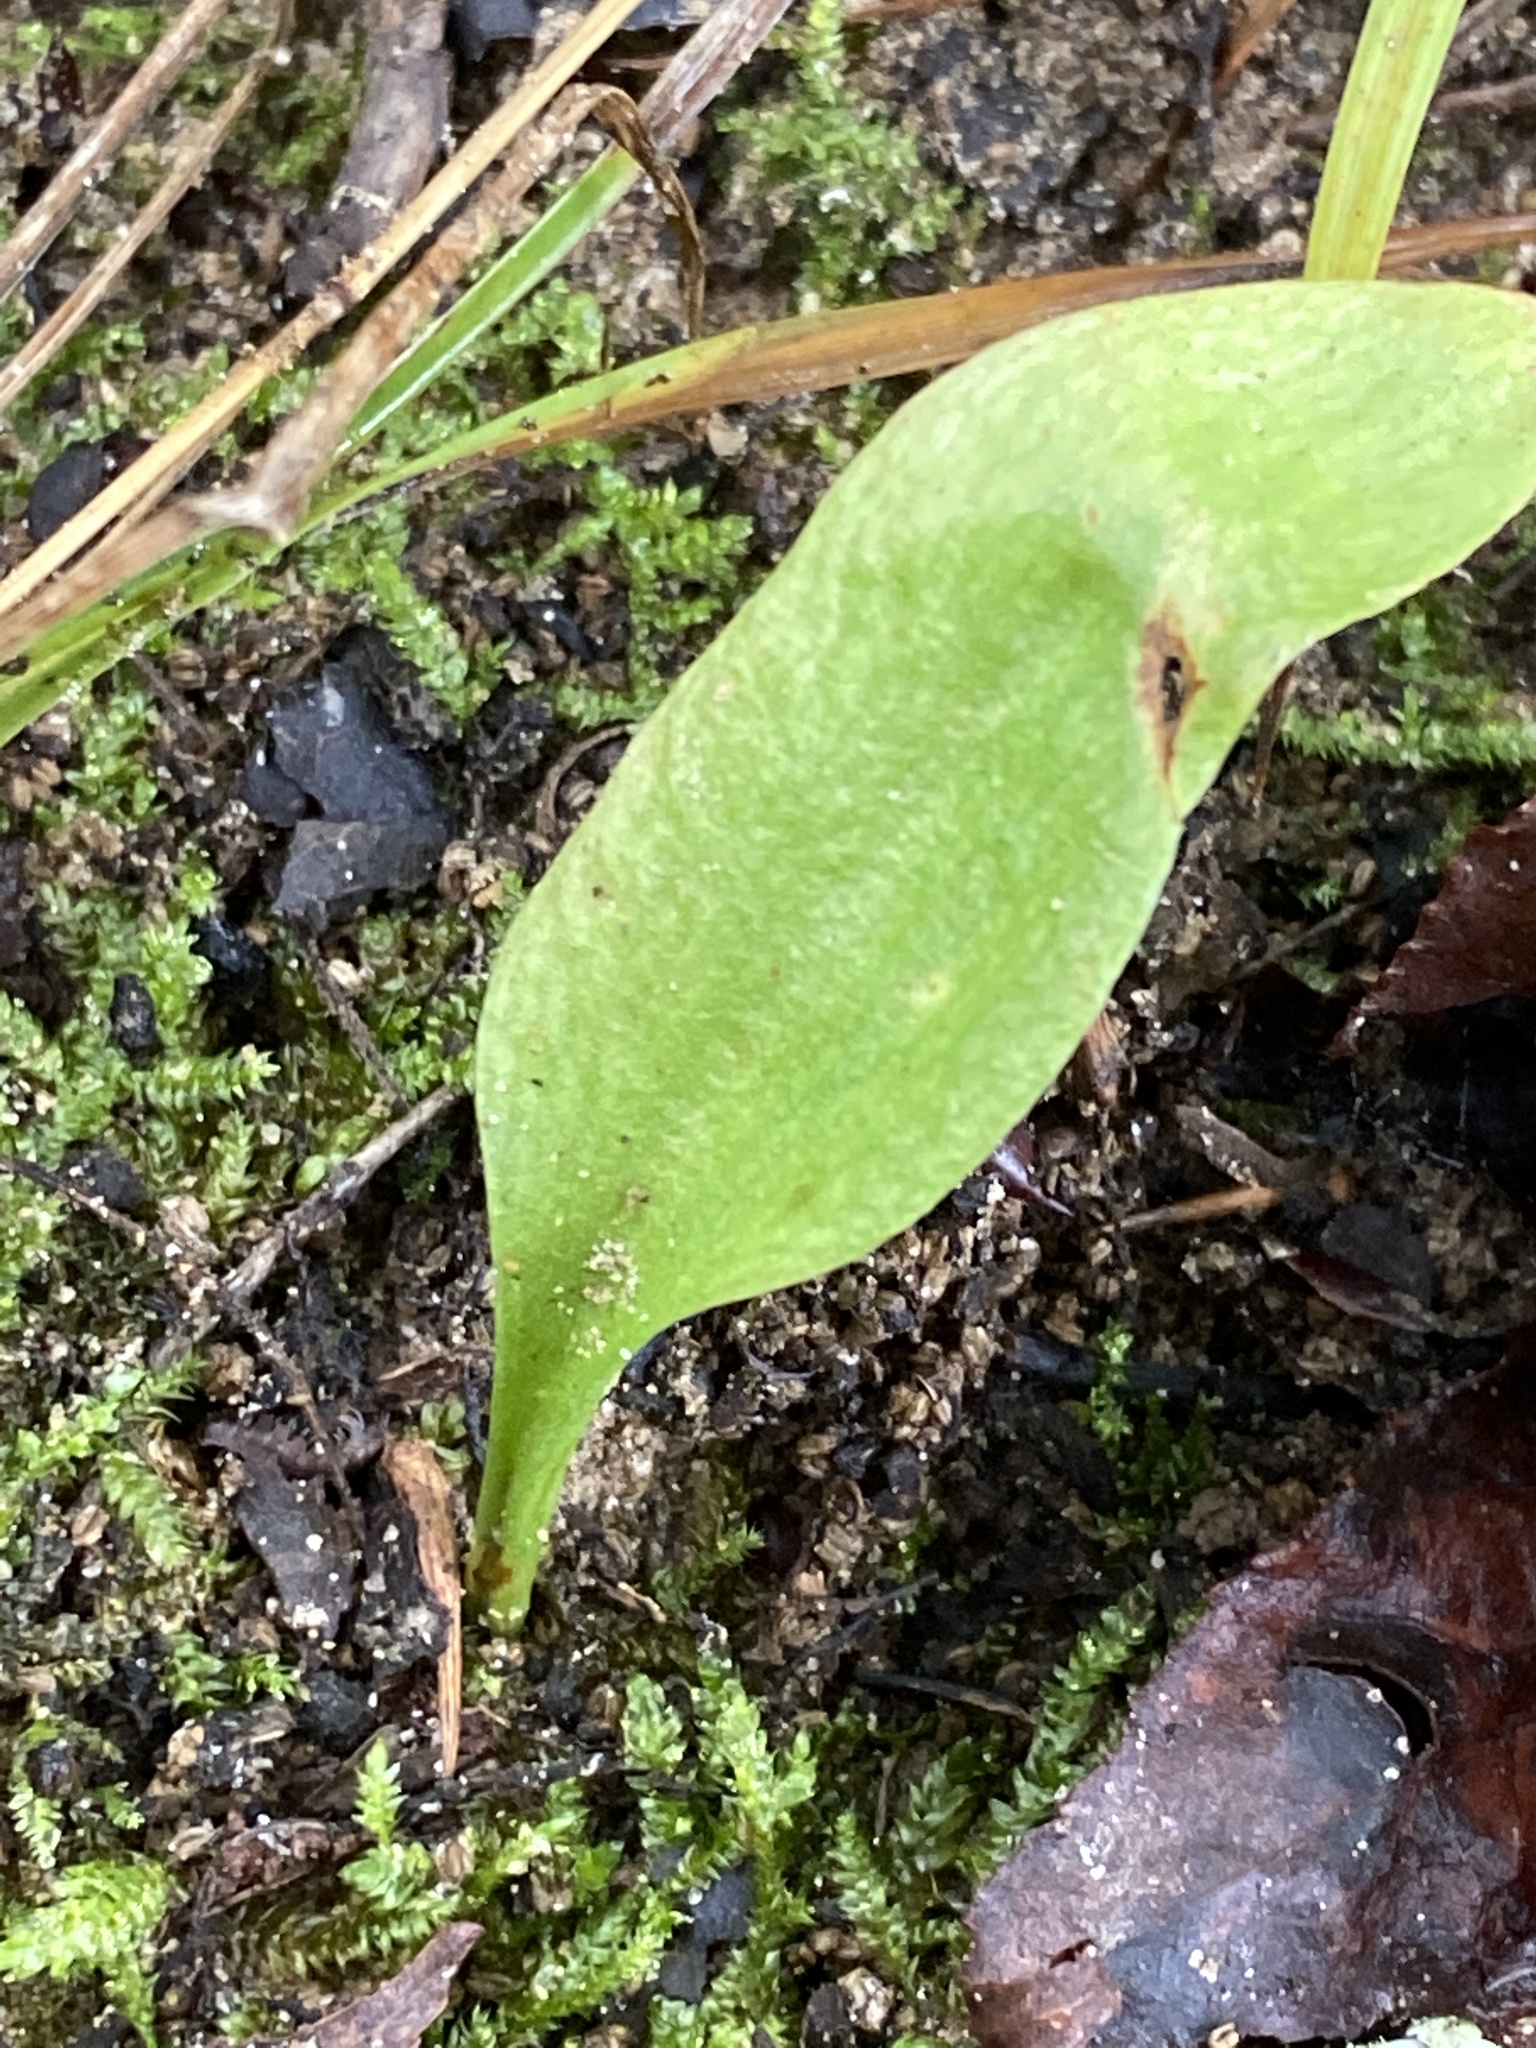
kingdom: Plantae
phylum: Tracheophyta
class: Polypodiopsida
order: Ophioglossales
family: Ophioglossaceae
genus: Ophioglossum
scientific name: Ophioglossum vulgatum
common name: Adder's-tongue
